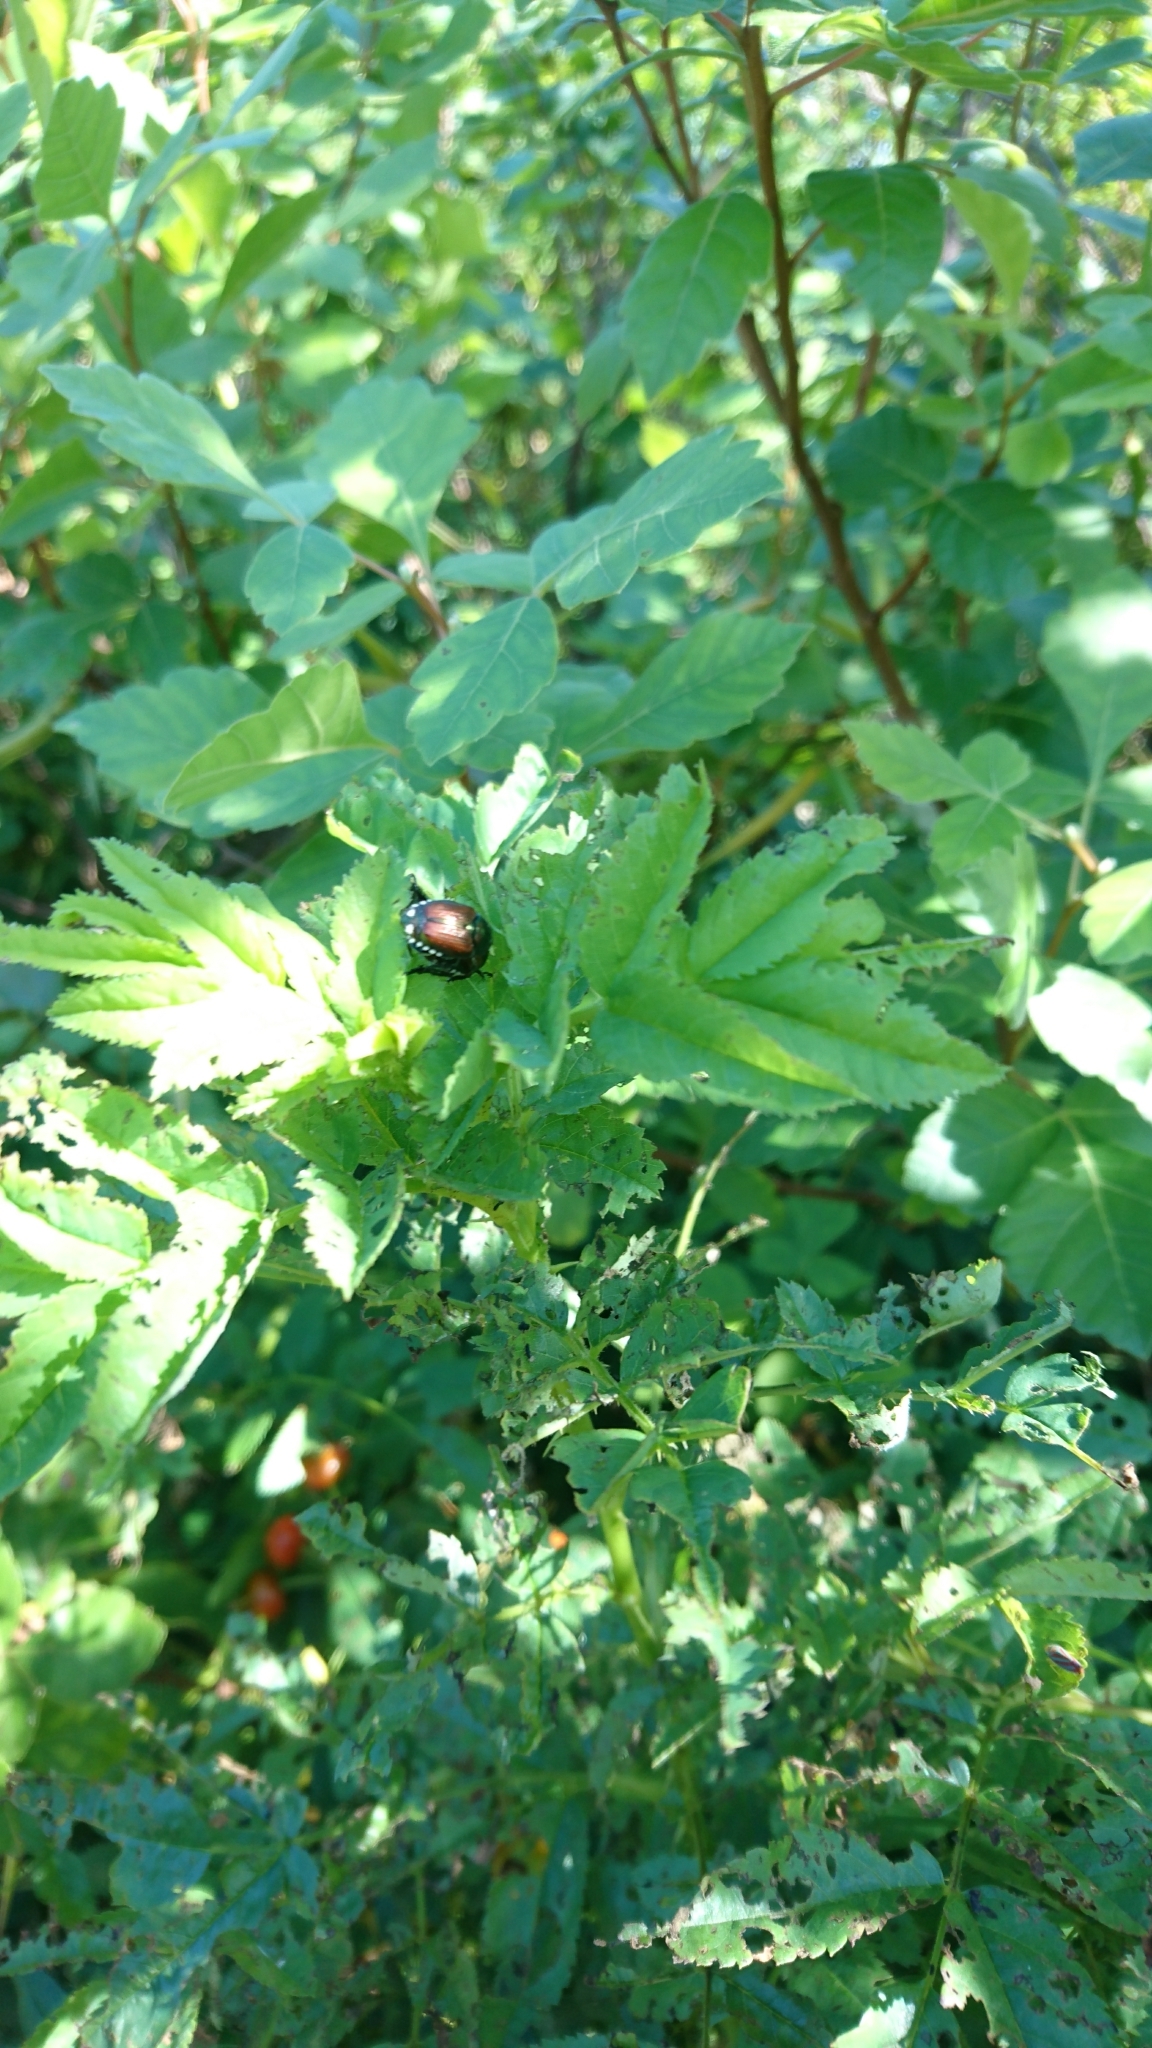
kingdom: Animalia
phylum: Arthropoda
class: Insecta
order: Coleoptera
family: Scarabaeidae
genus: Popillia
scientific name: Popillia japonica
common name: Japanese beetle
